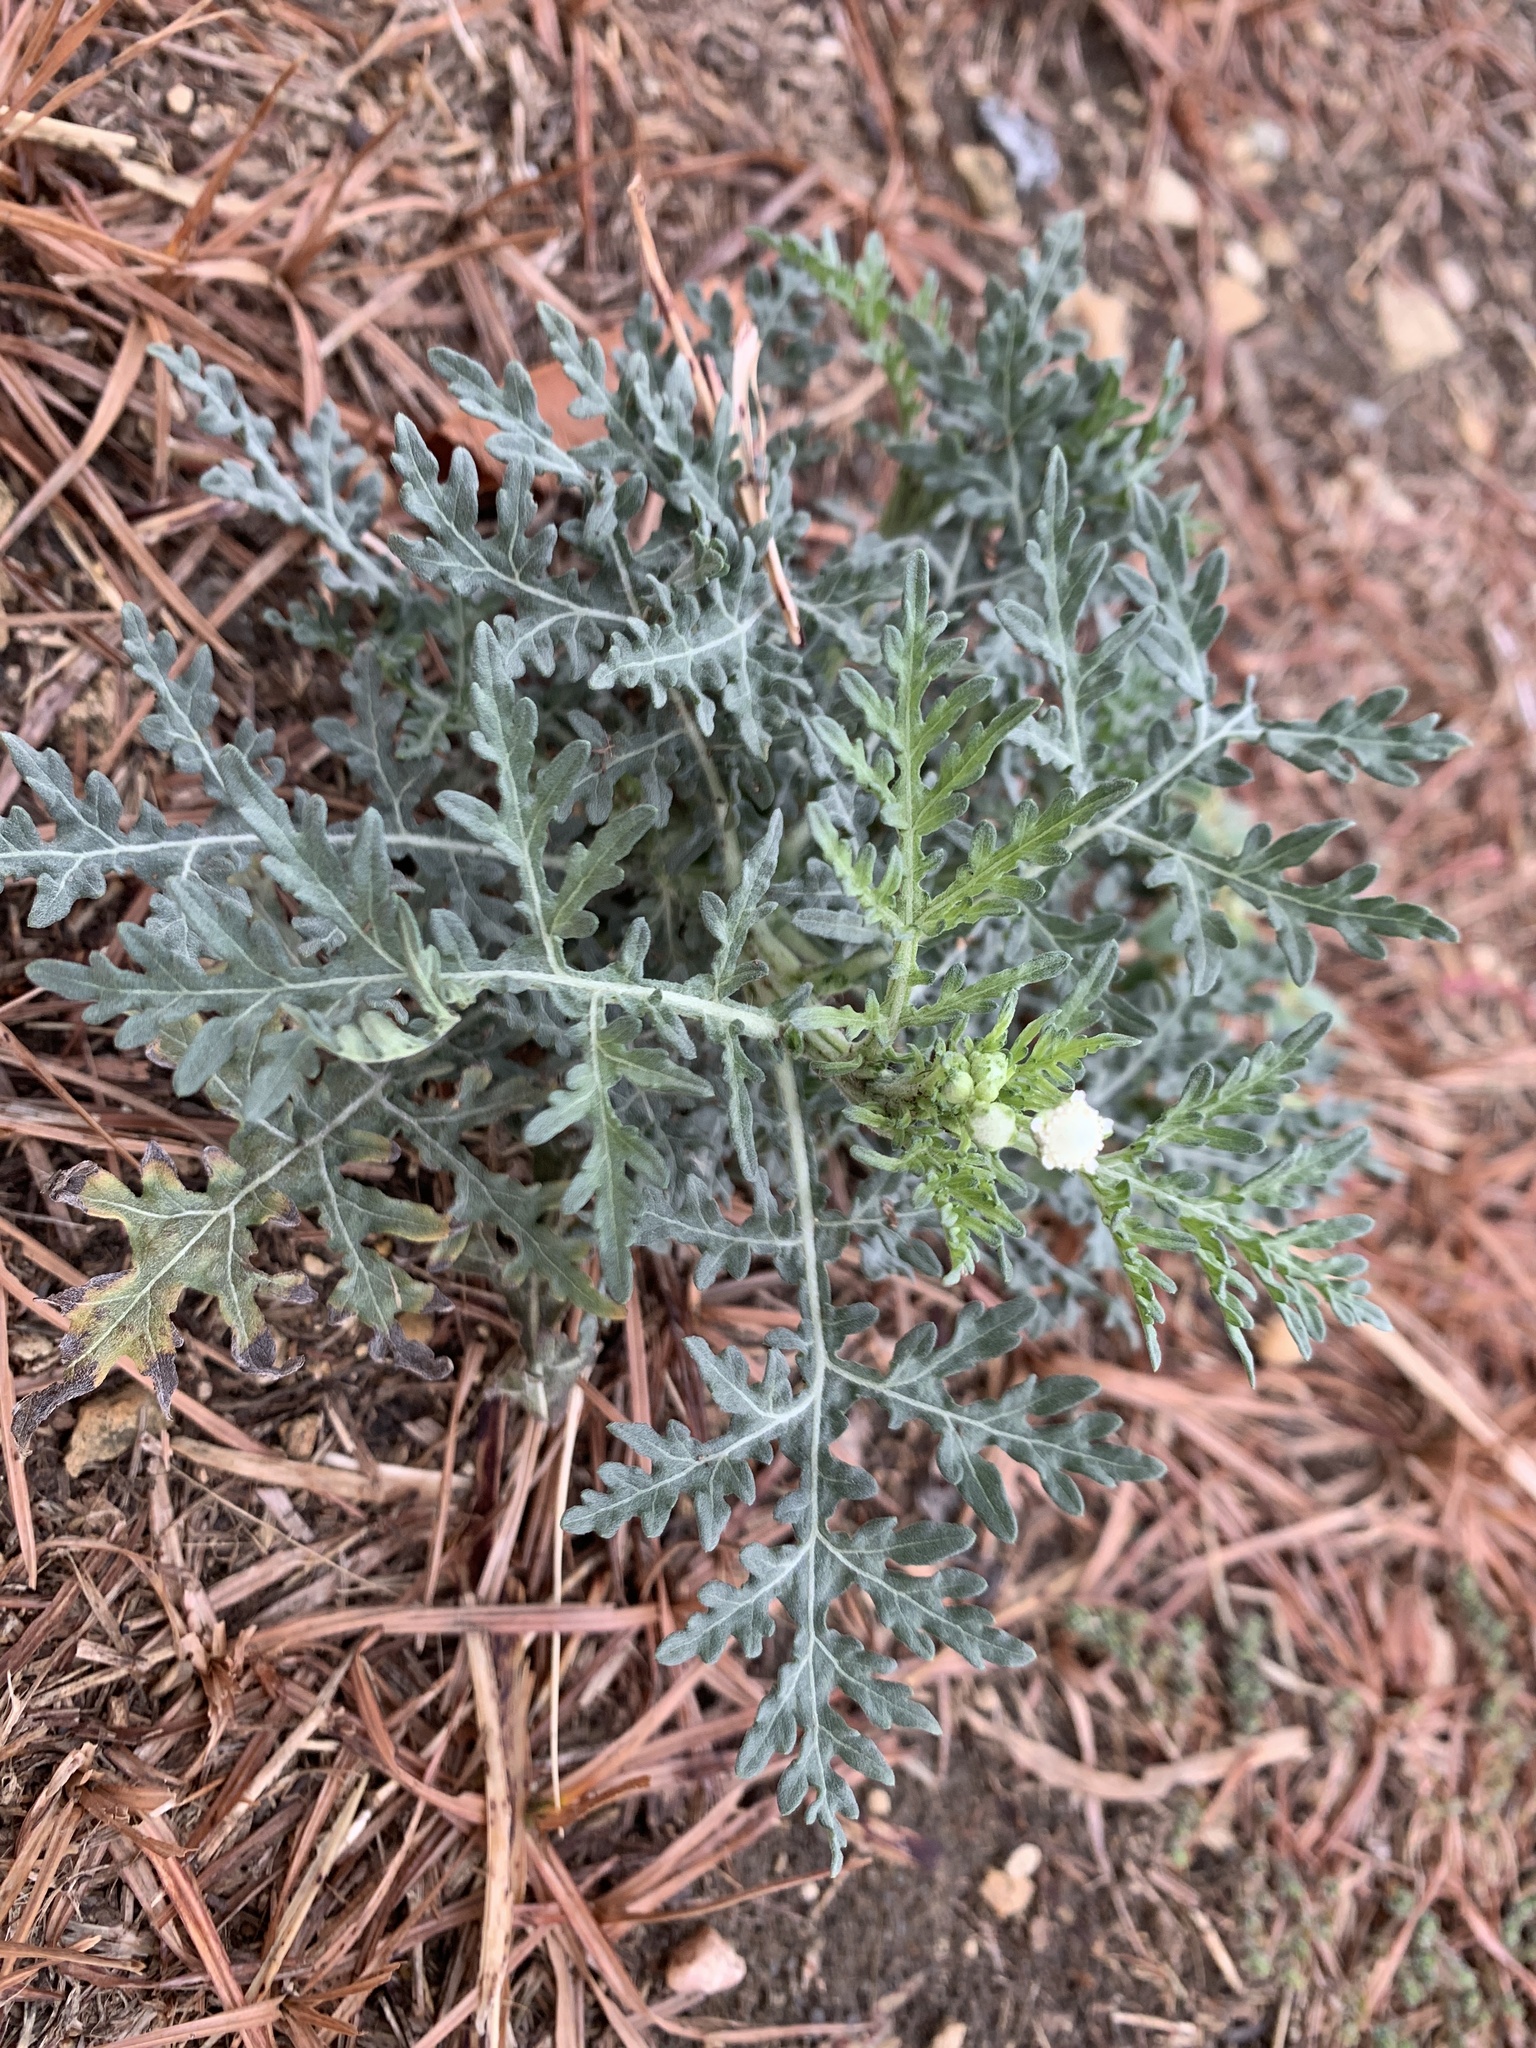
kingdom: Plantae
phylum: Tracheophyta
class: Magnoliopsida
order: Asterales
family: Asteraceae
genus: Parthenium
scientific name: Parthenium hysterophorus
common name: Santa maria feverfew
